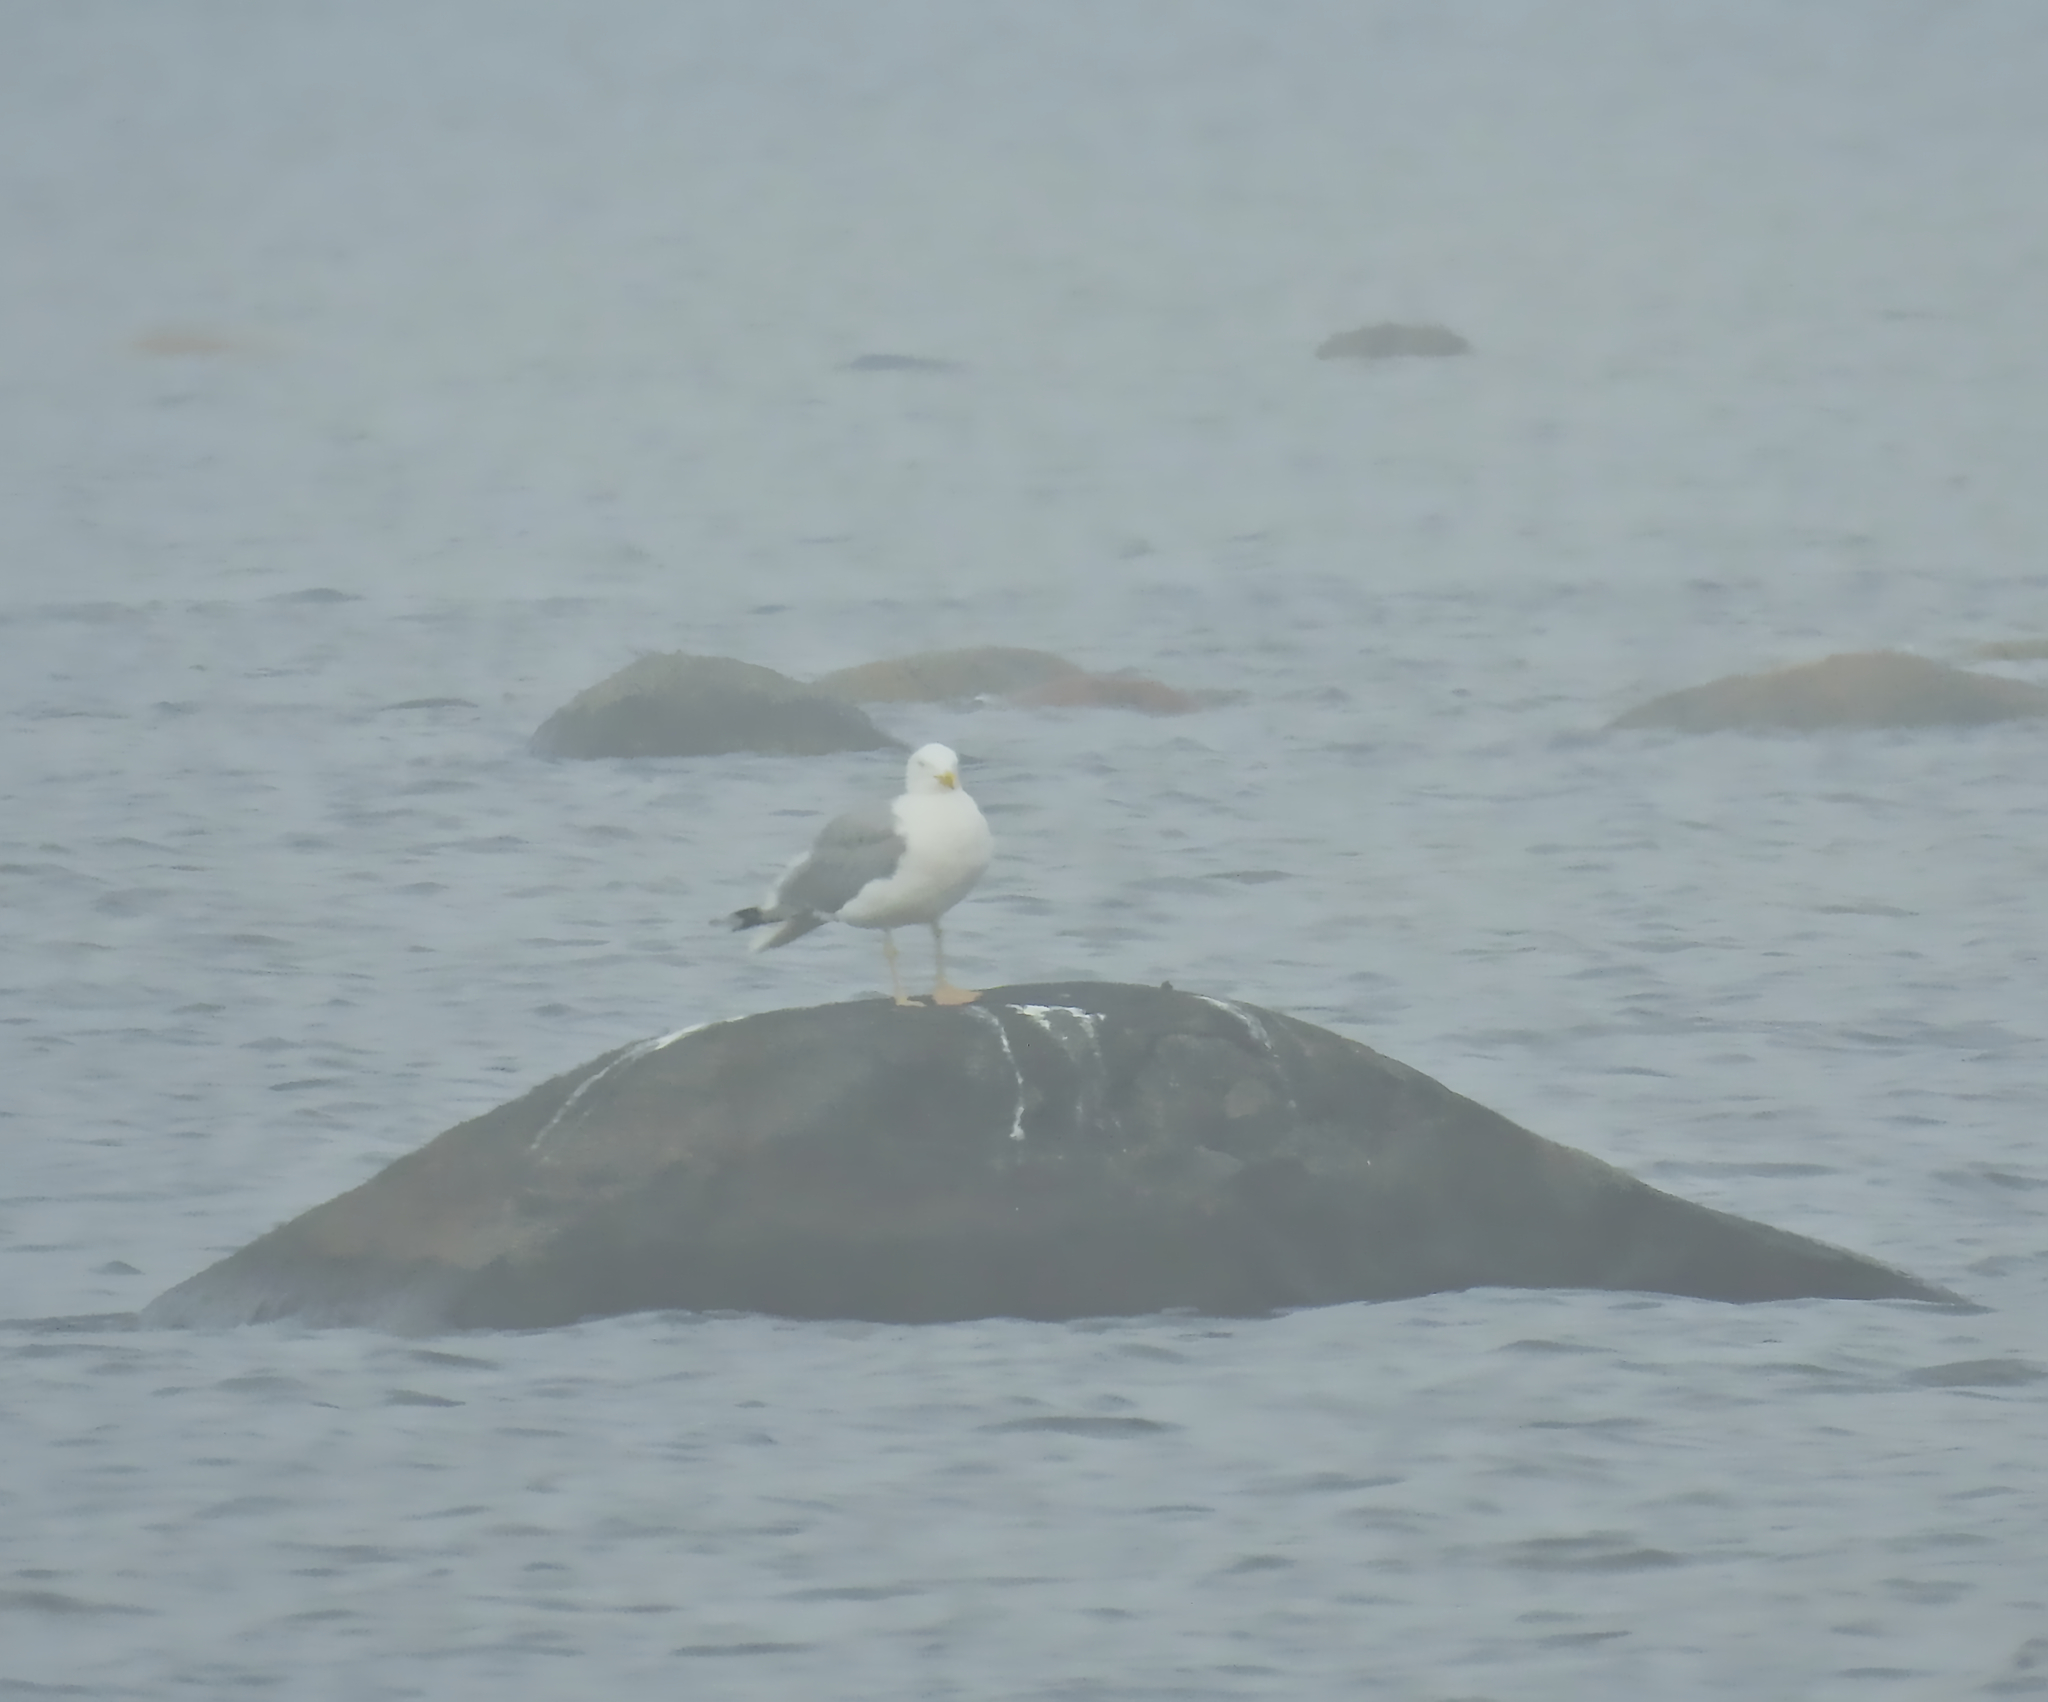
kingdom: Animalia
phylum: Chordata
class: Aves
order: Charadriiformes
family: Laridae
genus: Larus
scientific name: Larus argentatus
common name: Herring gull
